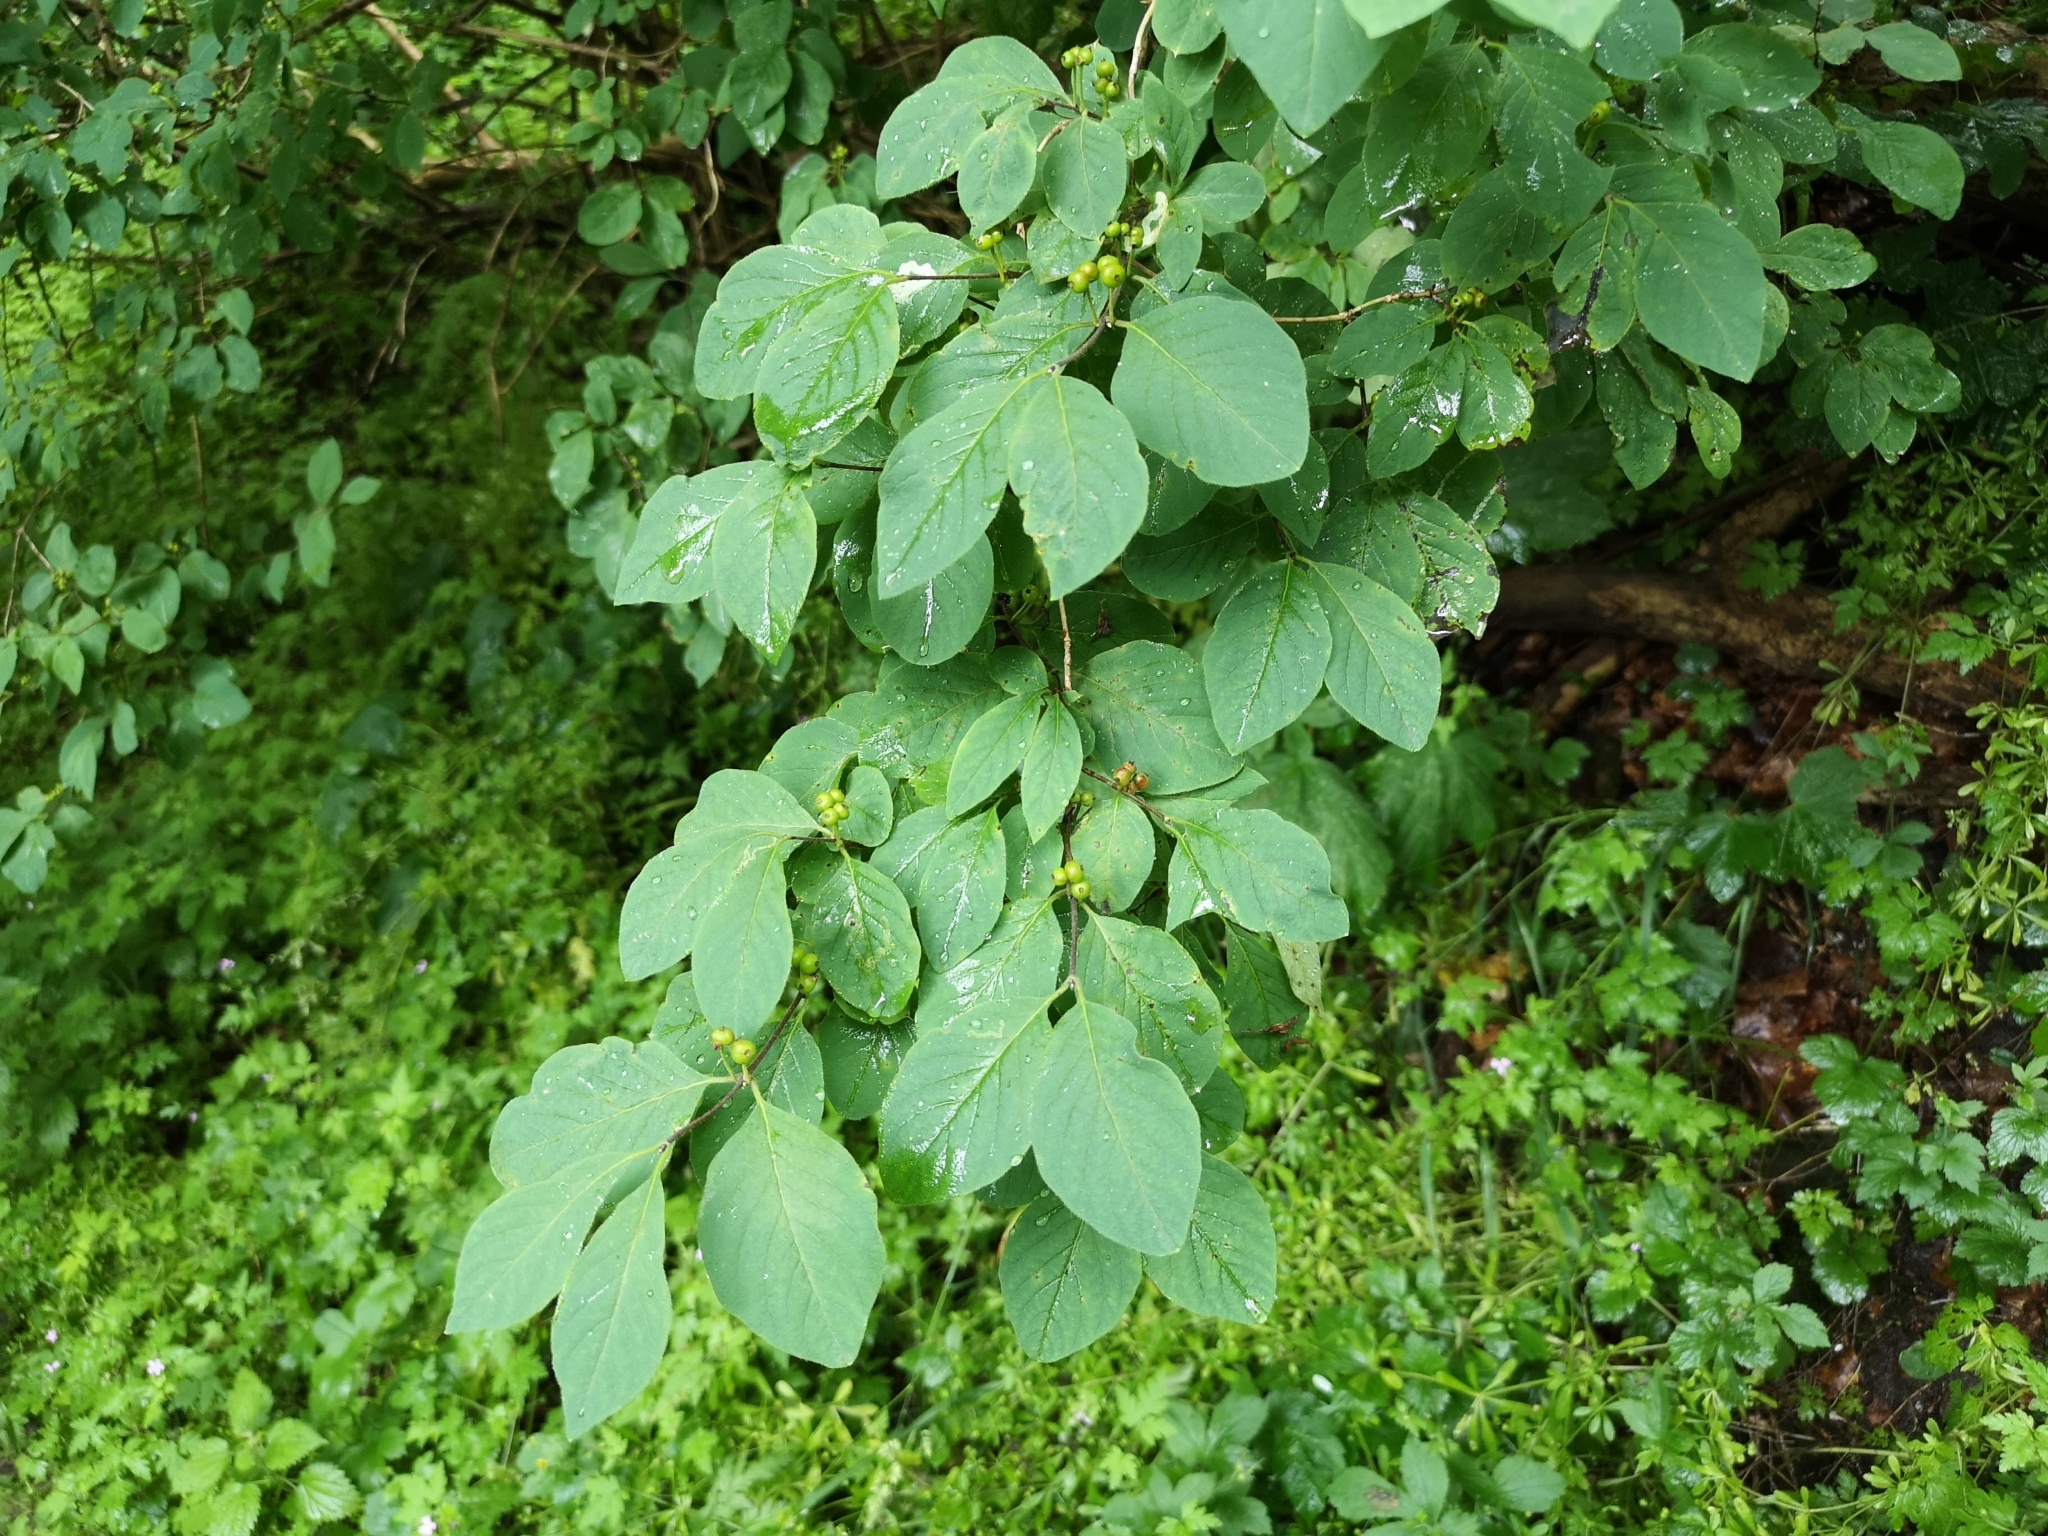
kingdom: Plantae
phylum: Tracheophyta
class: Magnoliopsida
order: Dipsacales
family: Caprifoliaceae
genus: Lonicera
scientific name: Lonicera xylosteum
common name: Fly honeysuckle
